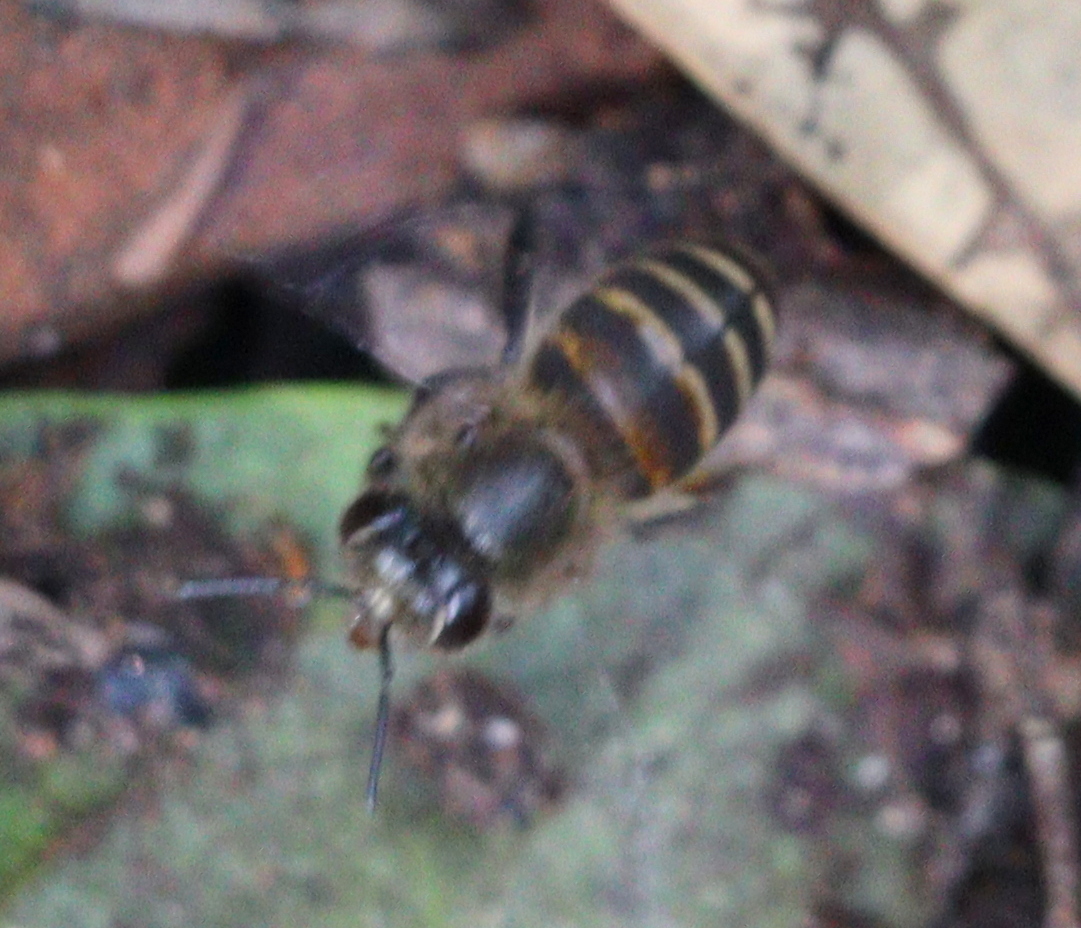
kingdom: Animalia
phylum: Arthropoda
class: Insecta
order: Hymenoptera
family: Apidae
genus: Apis
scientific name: Apis cerana
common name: Honey bee
